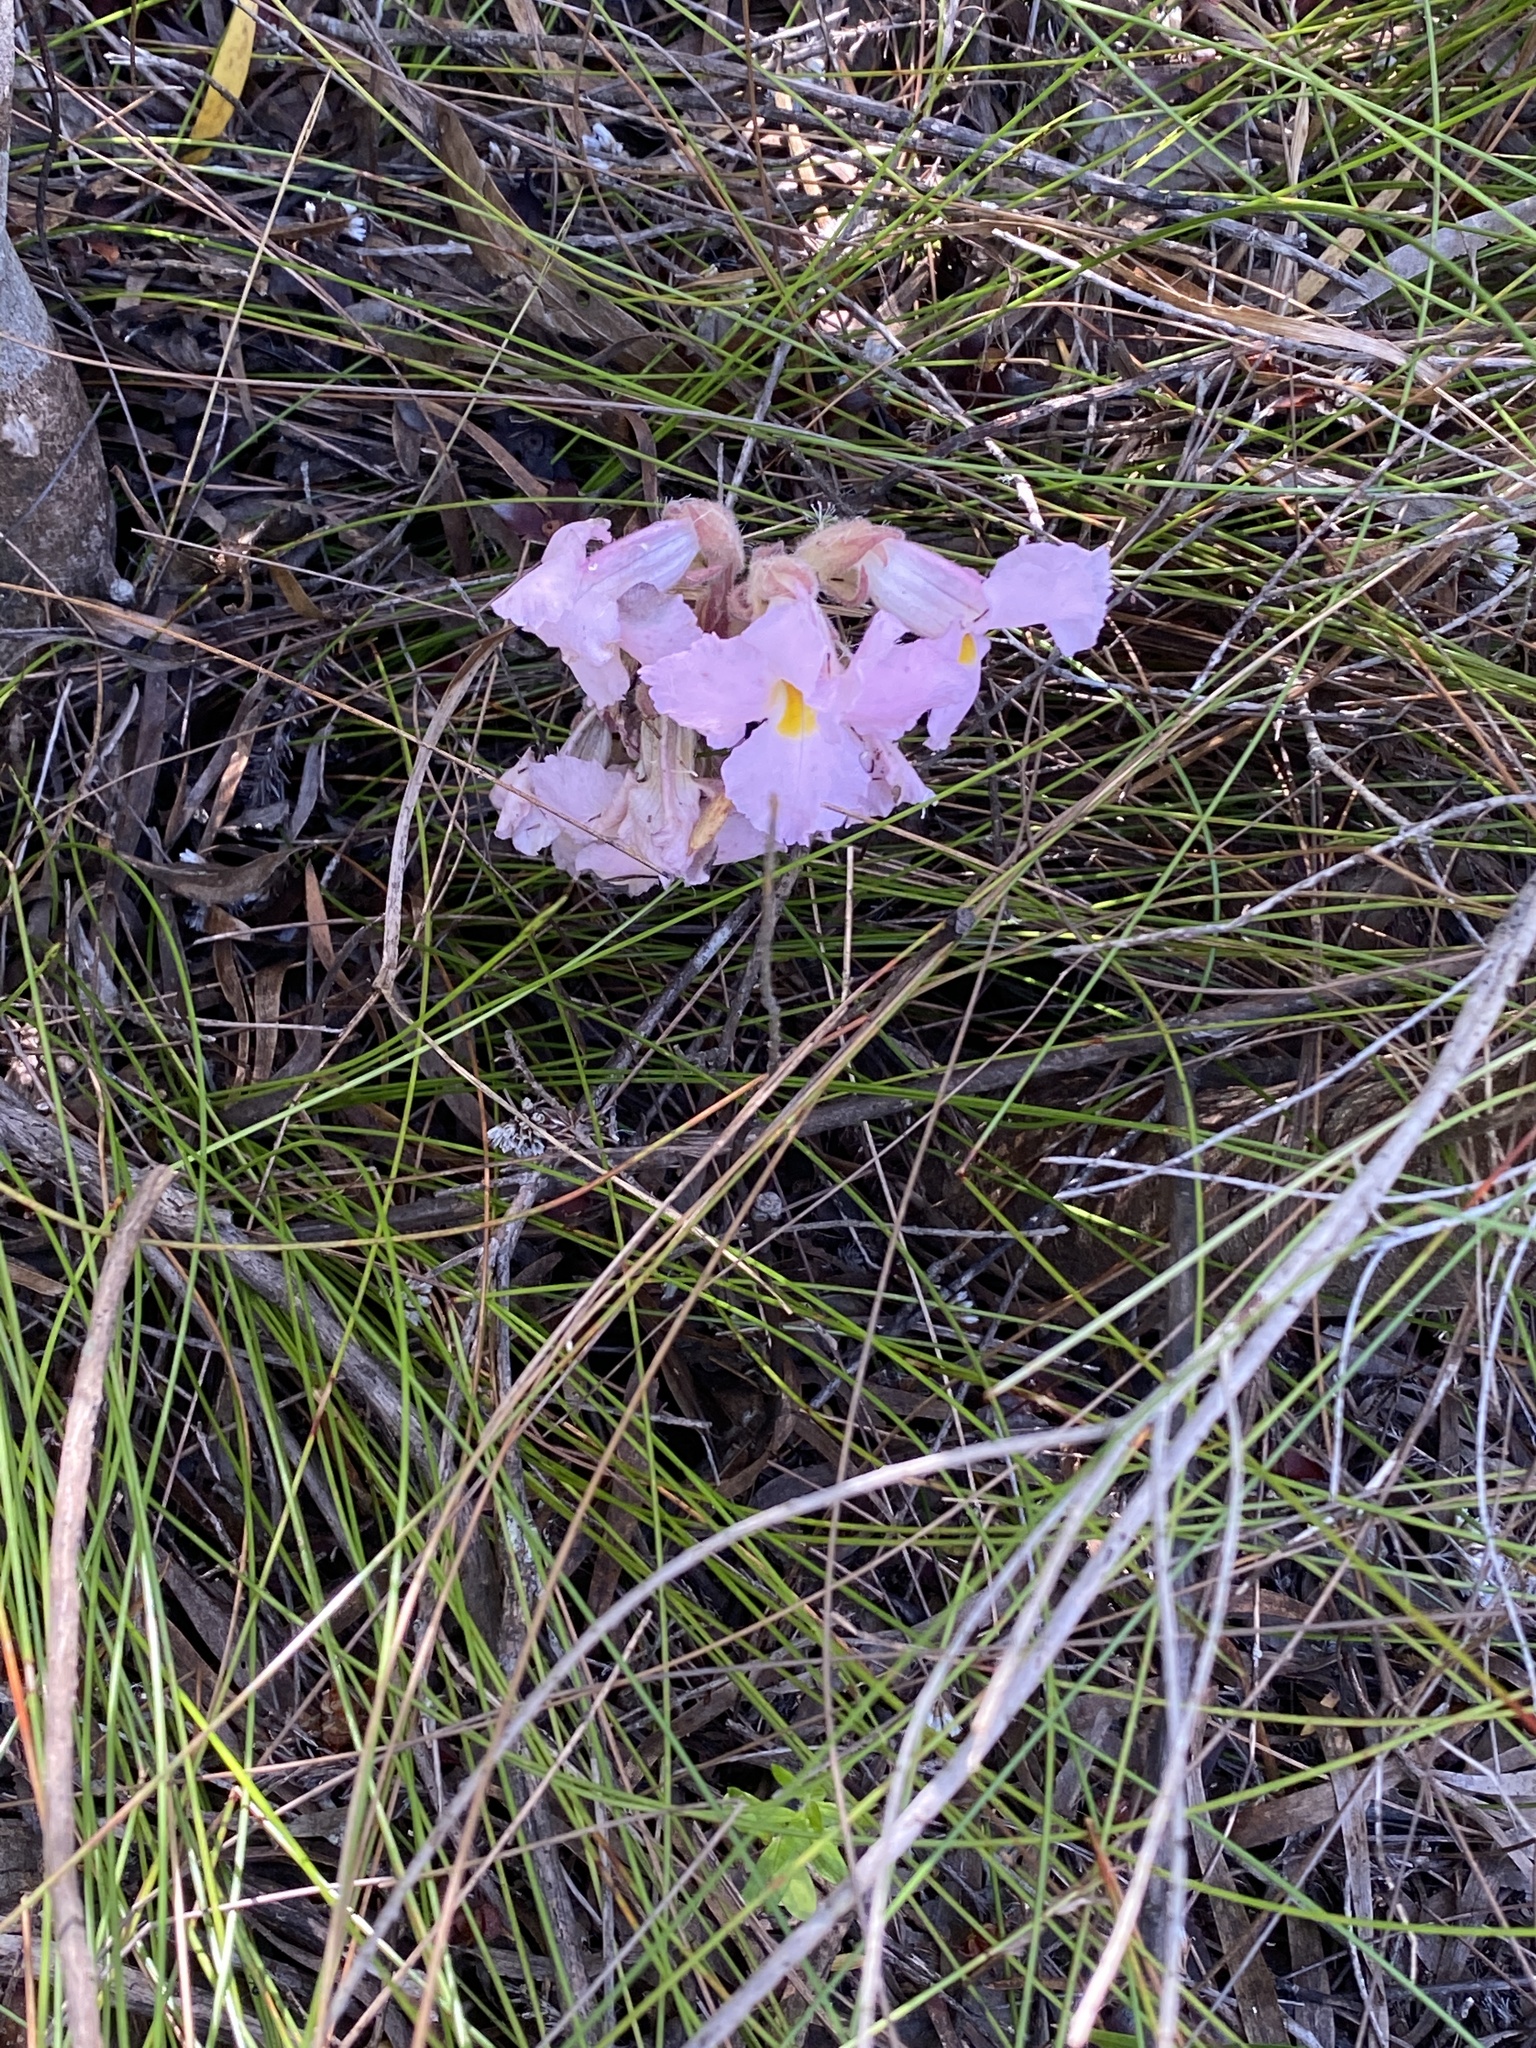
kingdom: Plantae
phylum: Tracheophyta
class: Magnoliopsida
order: Lamiales
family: Orobanchaceae
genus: Harveya
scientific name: Harveya purpurea
